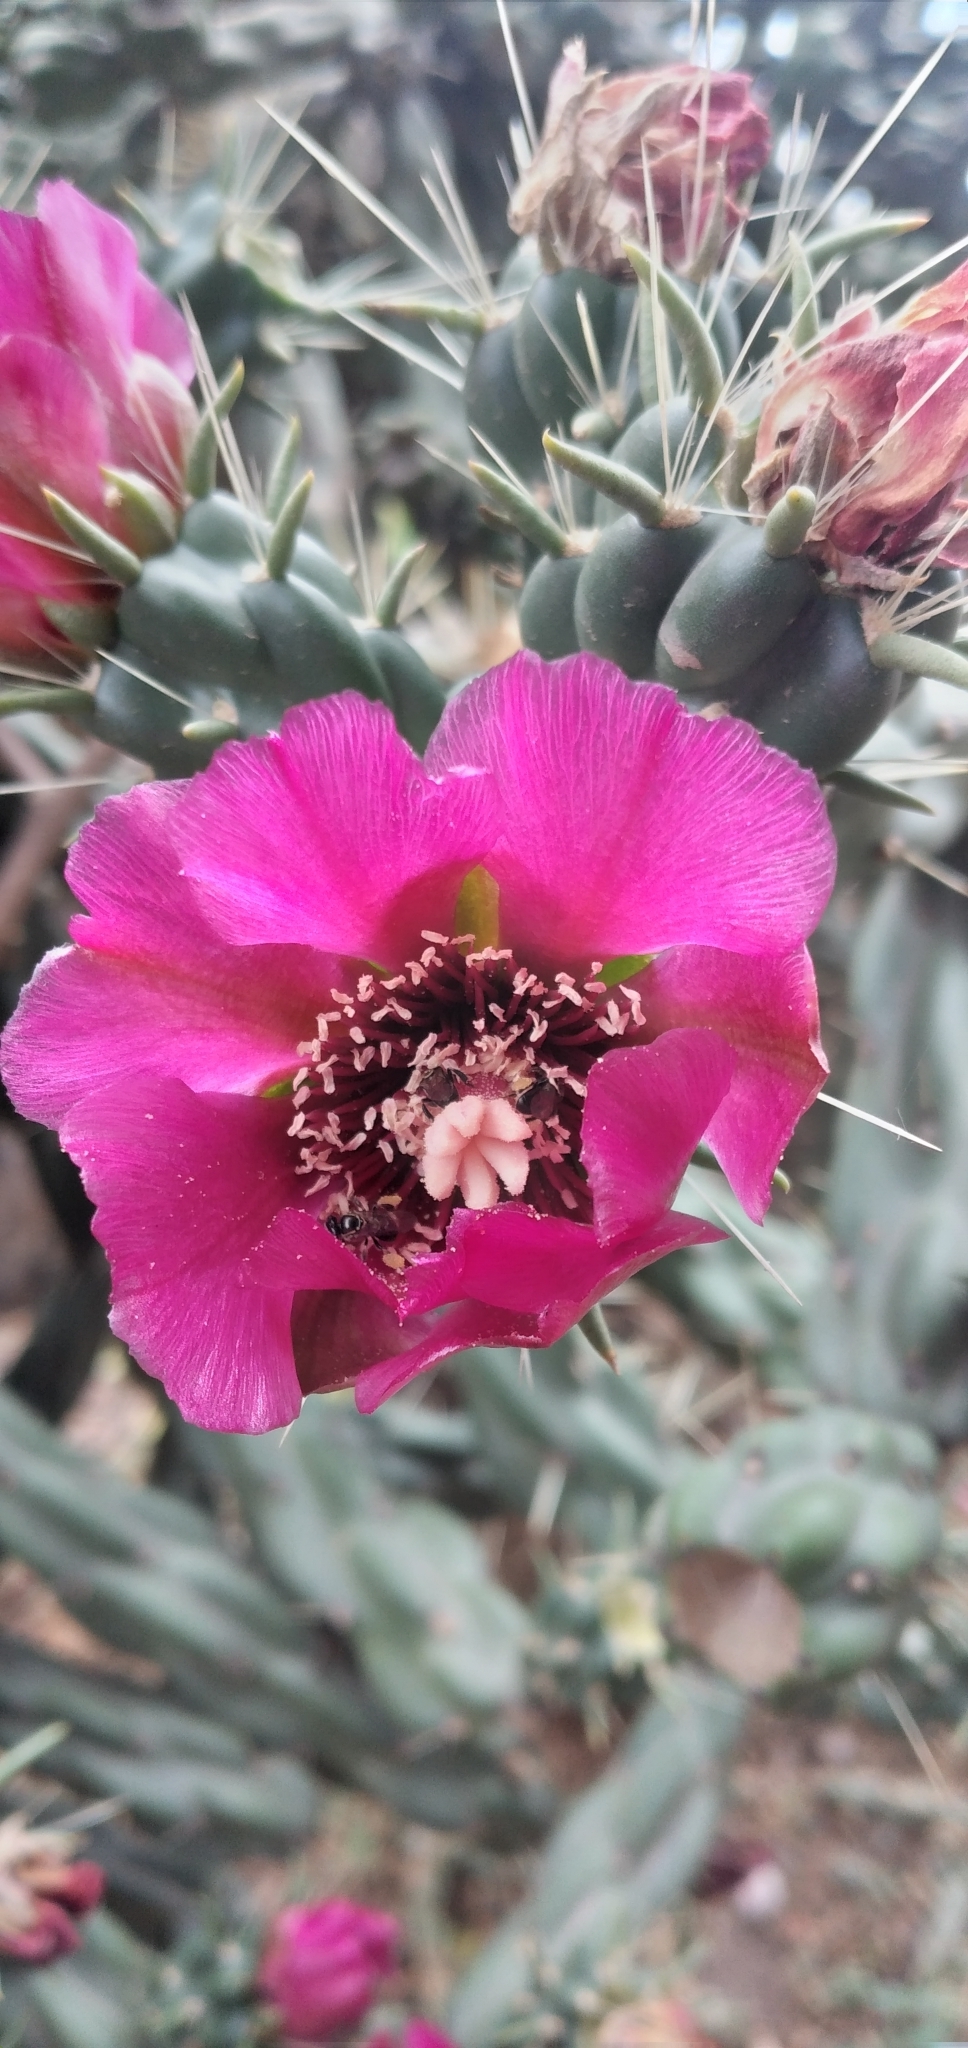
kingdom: Plantae
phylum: Tracheophyta
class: Magnoliopsida
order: Caryophyllales
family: Cactaceae
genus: Cylindropuntia
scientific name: Cylindropuntia imbricata
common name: Candelabrum cactus
